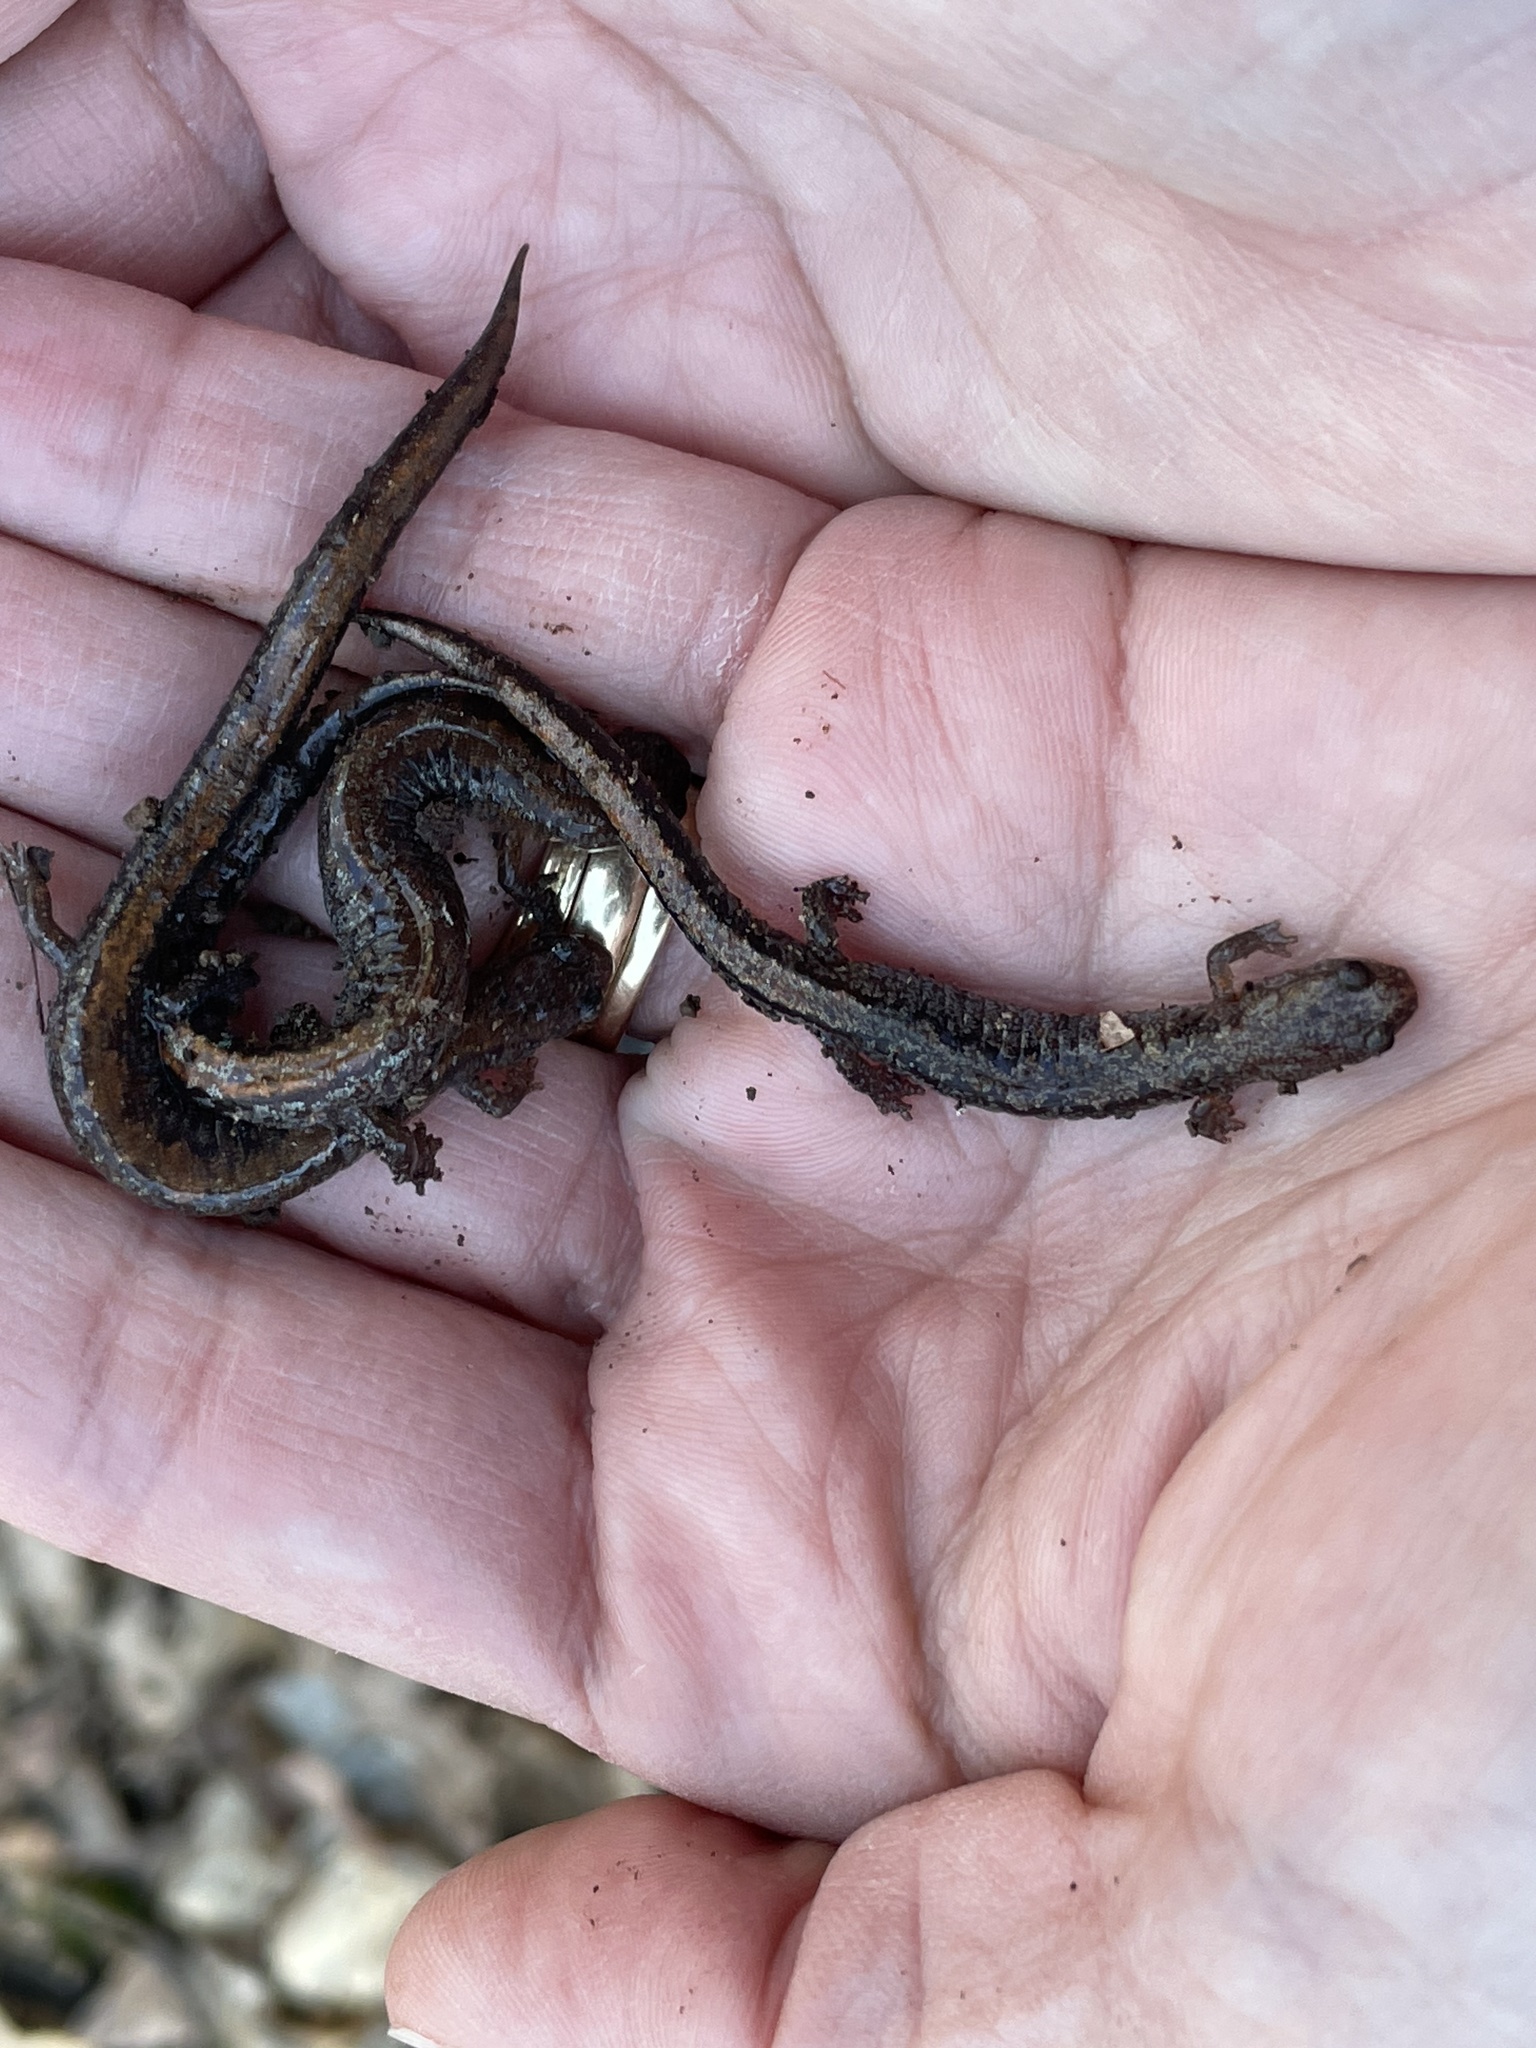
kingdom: Animalia
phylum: Chordata
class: Amphibia
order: Caudata
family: Plethodontidae
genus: Plethodon
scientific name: Plethodon dorsalis
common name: Northern zigzag salamander
